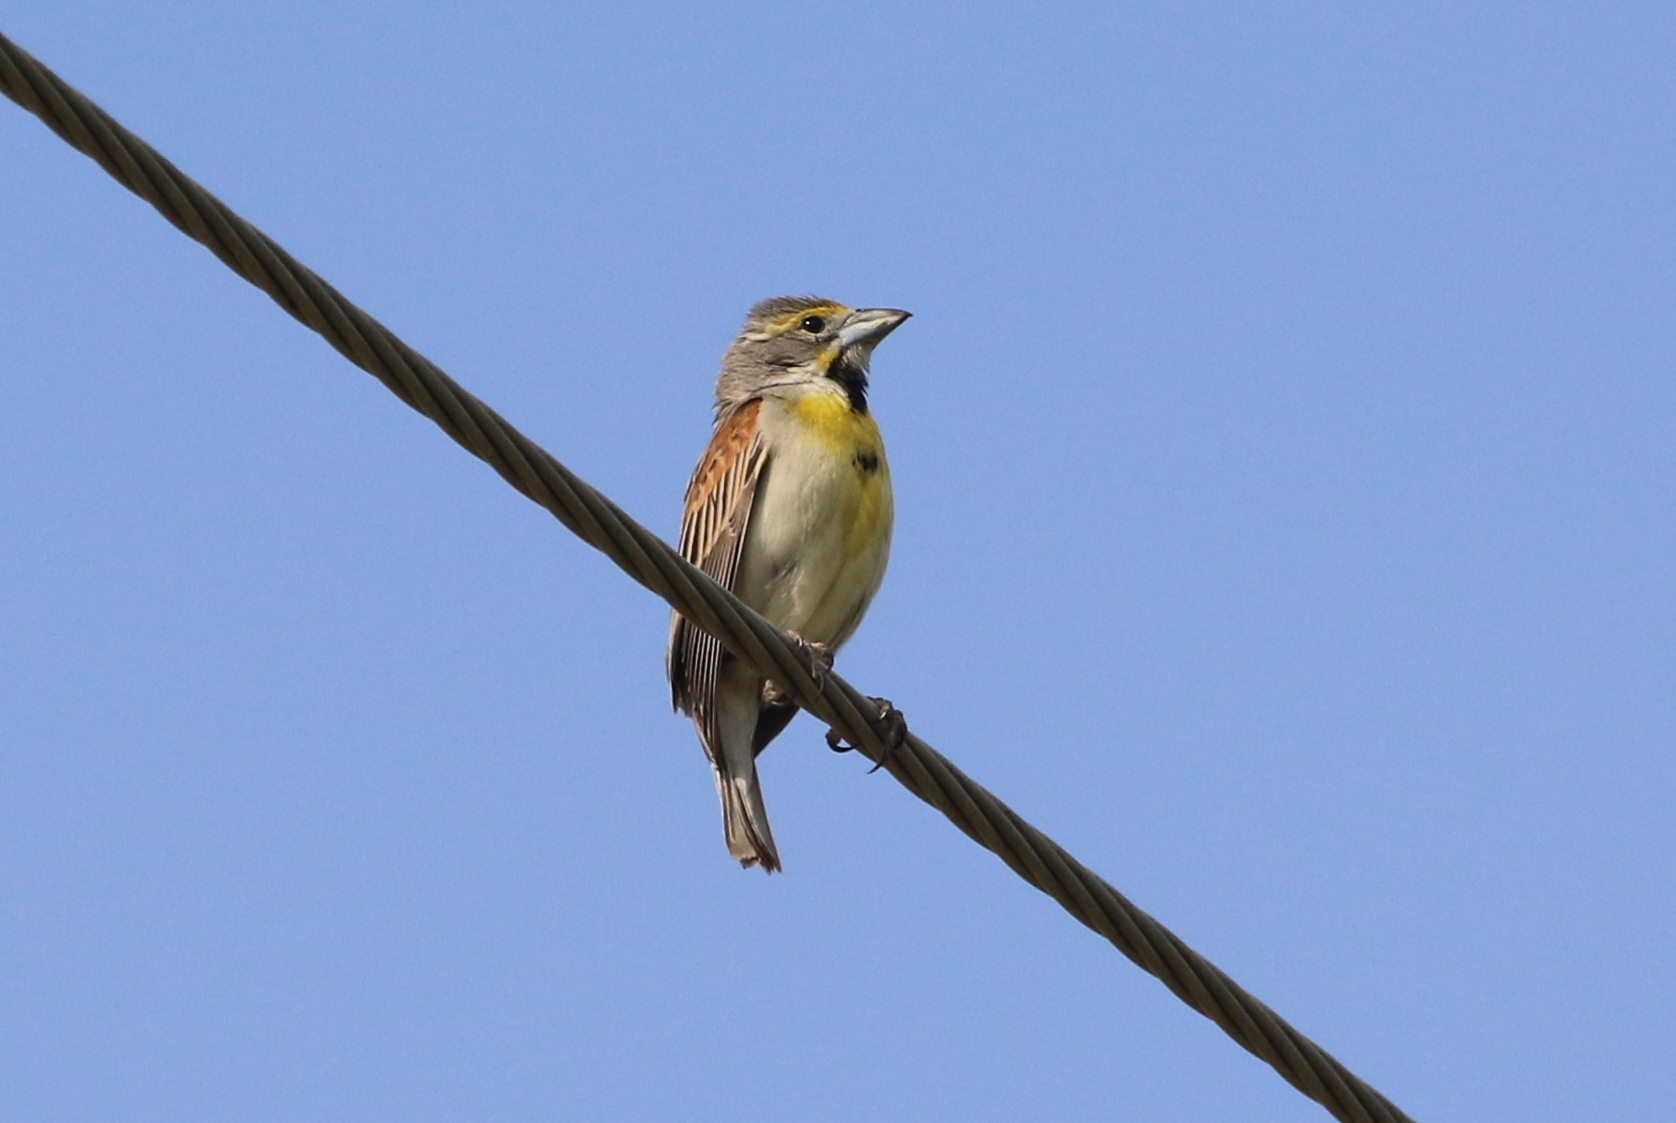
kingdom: Animalia
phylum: Chordata
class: Aves
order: Passeriformes
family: Cardinalidae
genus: Spiza
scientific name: Spiza americana
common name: Dickcissel
